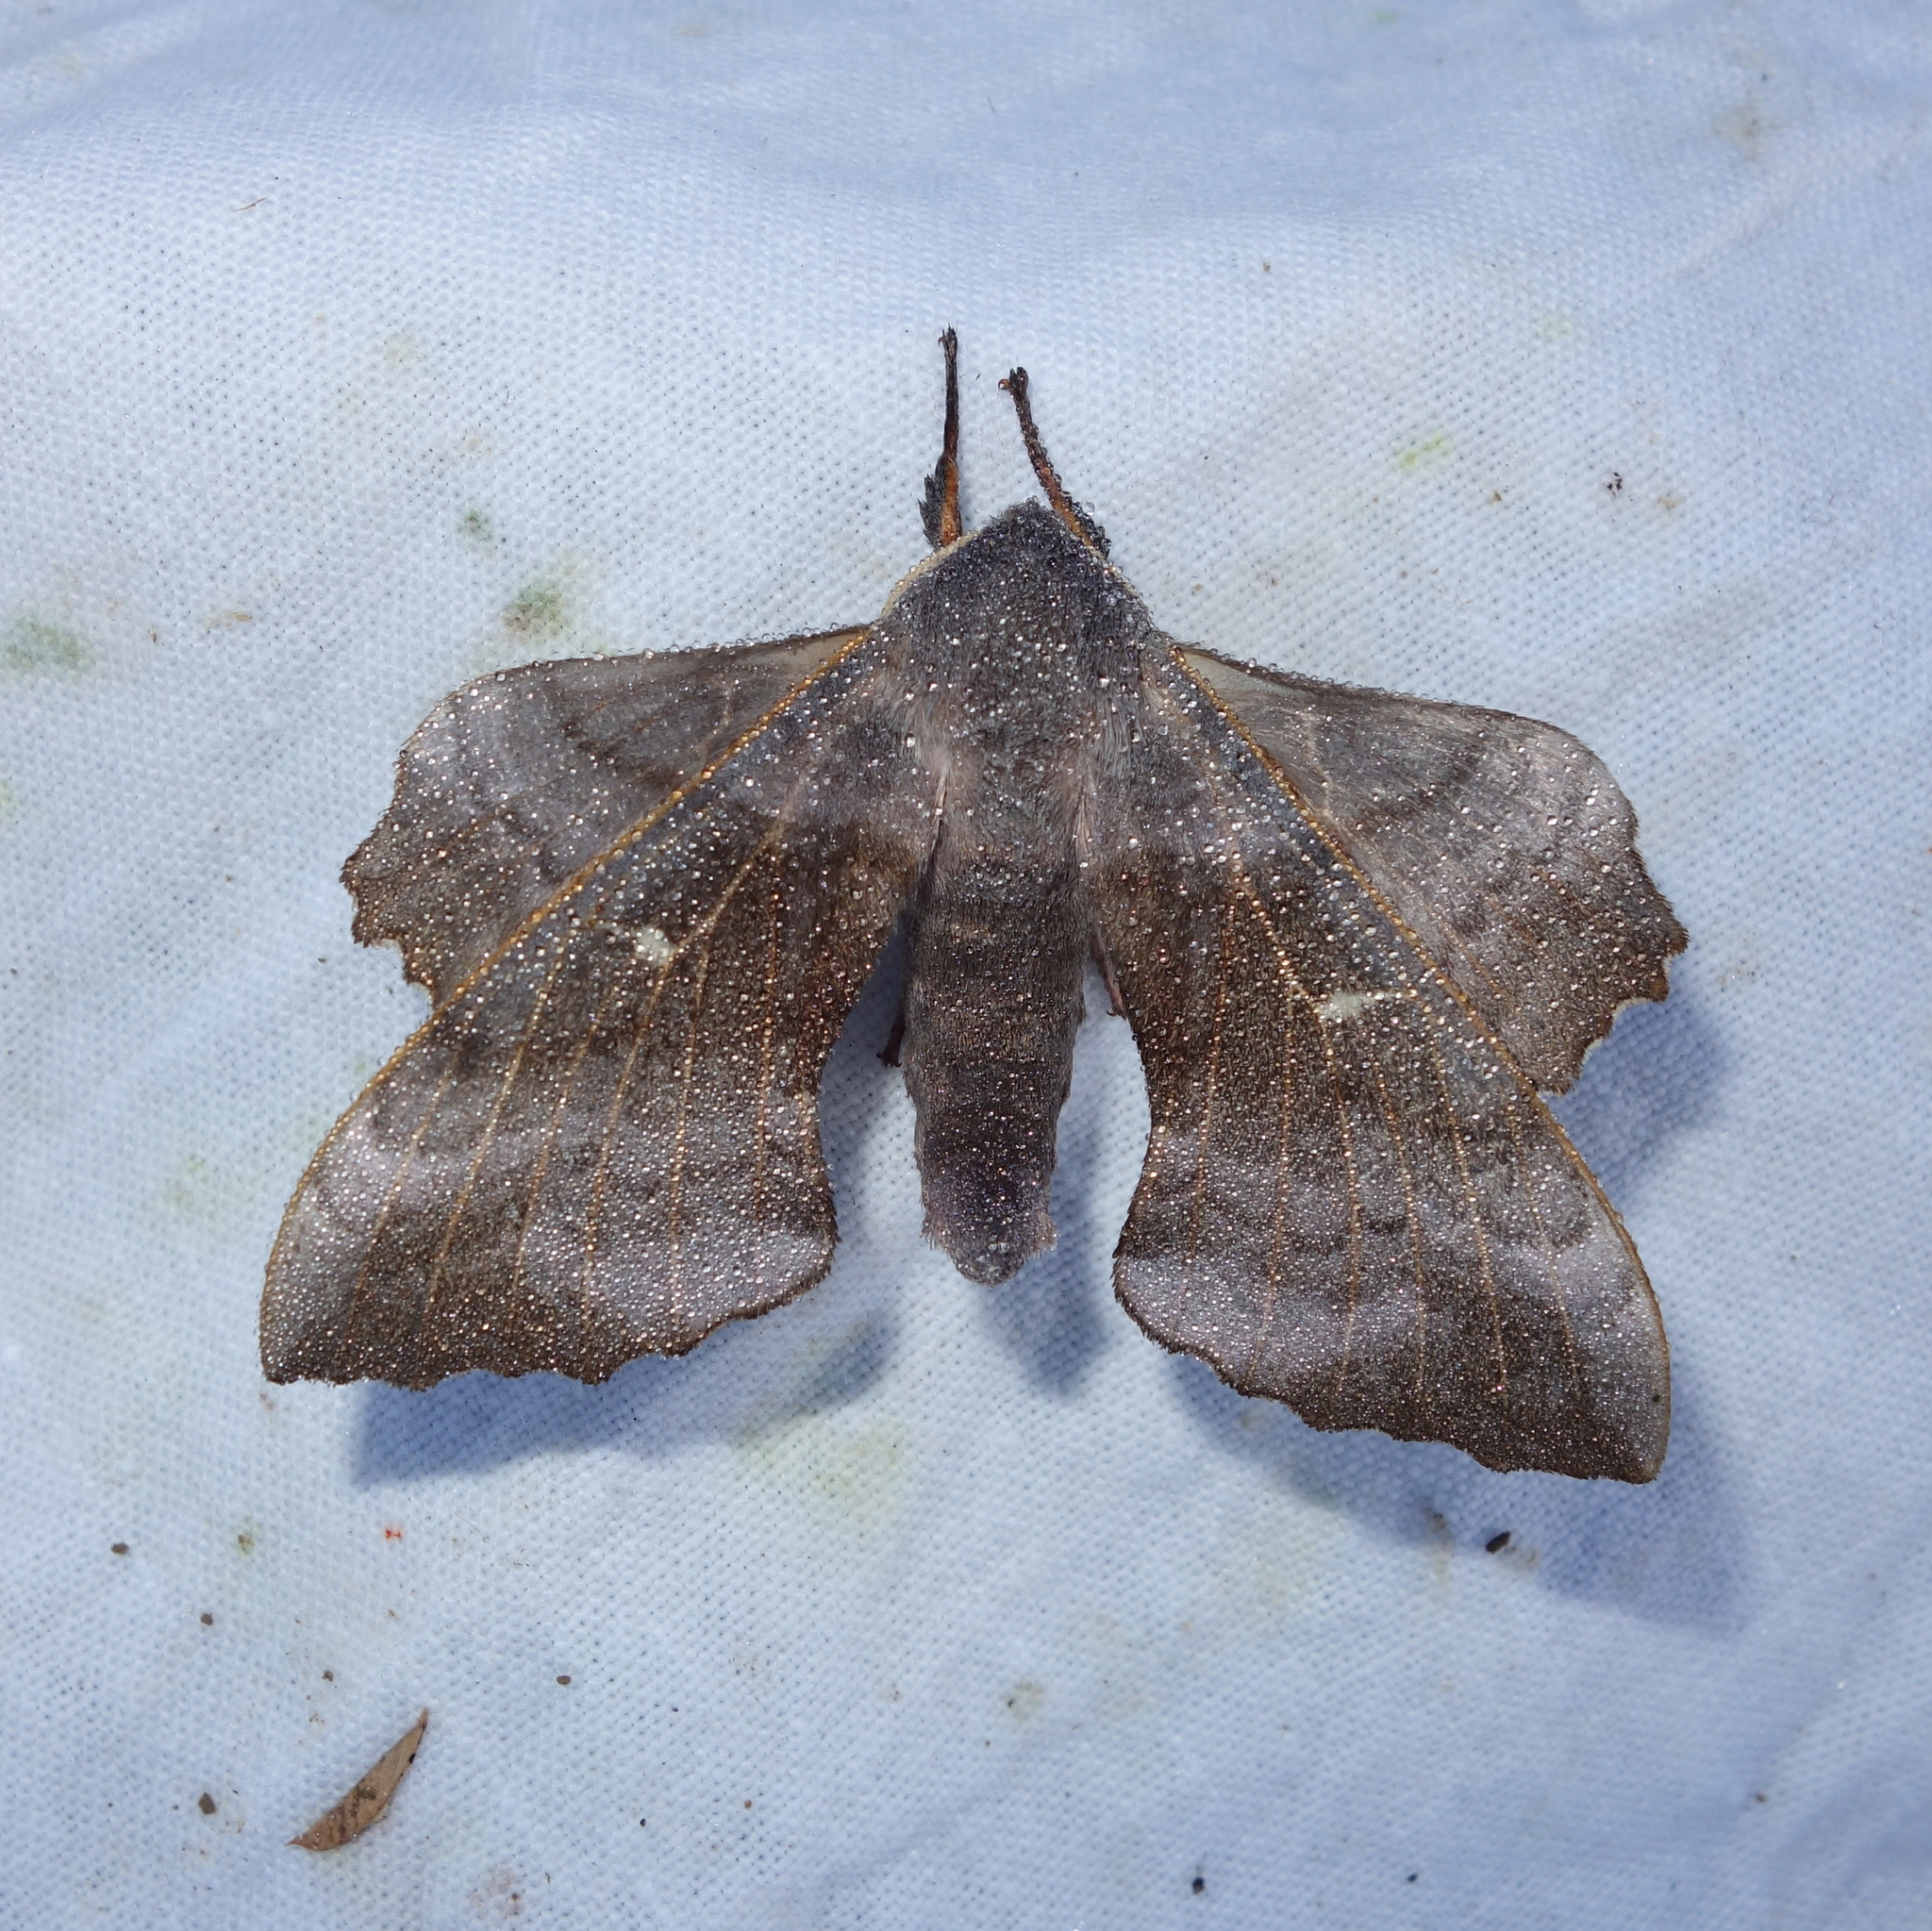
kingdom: Animalia
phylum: Arthropoda
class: Insecta
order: Lepidoptera
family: Sphingidae
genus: Laothoe
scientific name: Laothoe populi
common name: Poplar hawk-moth
